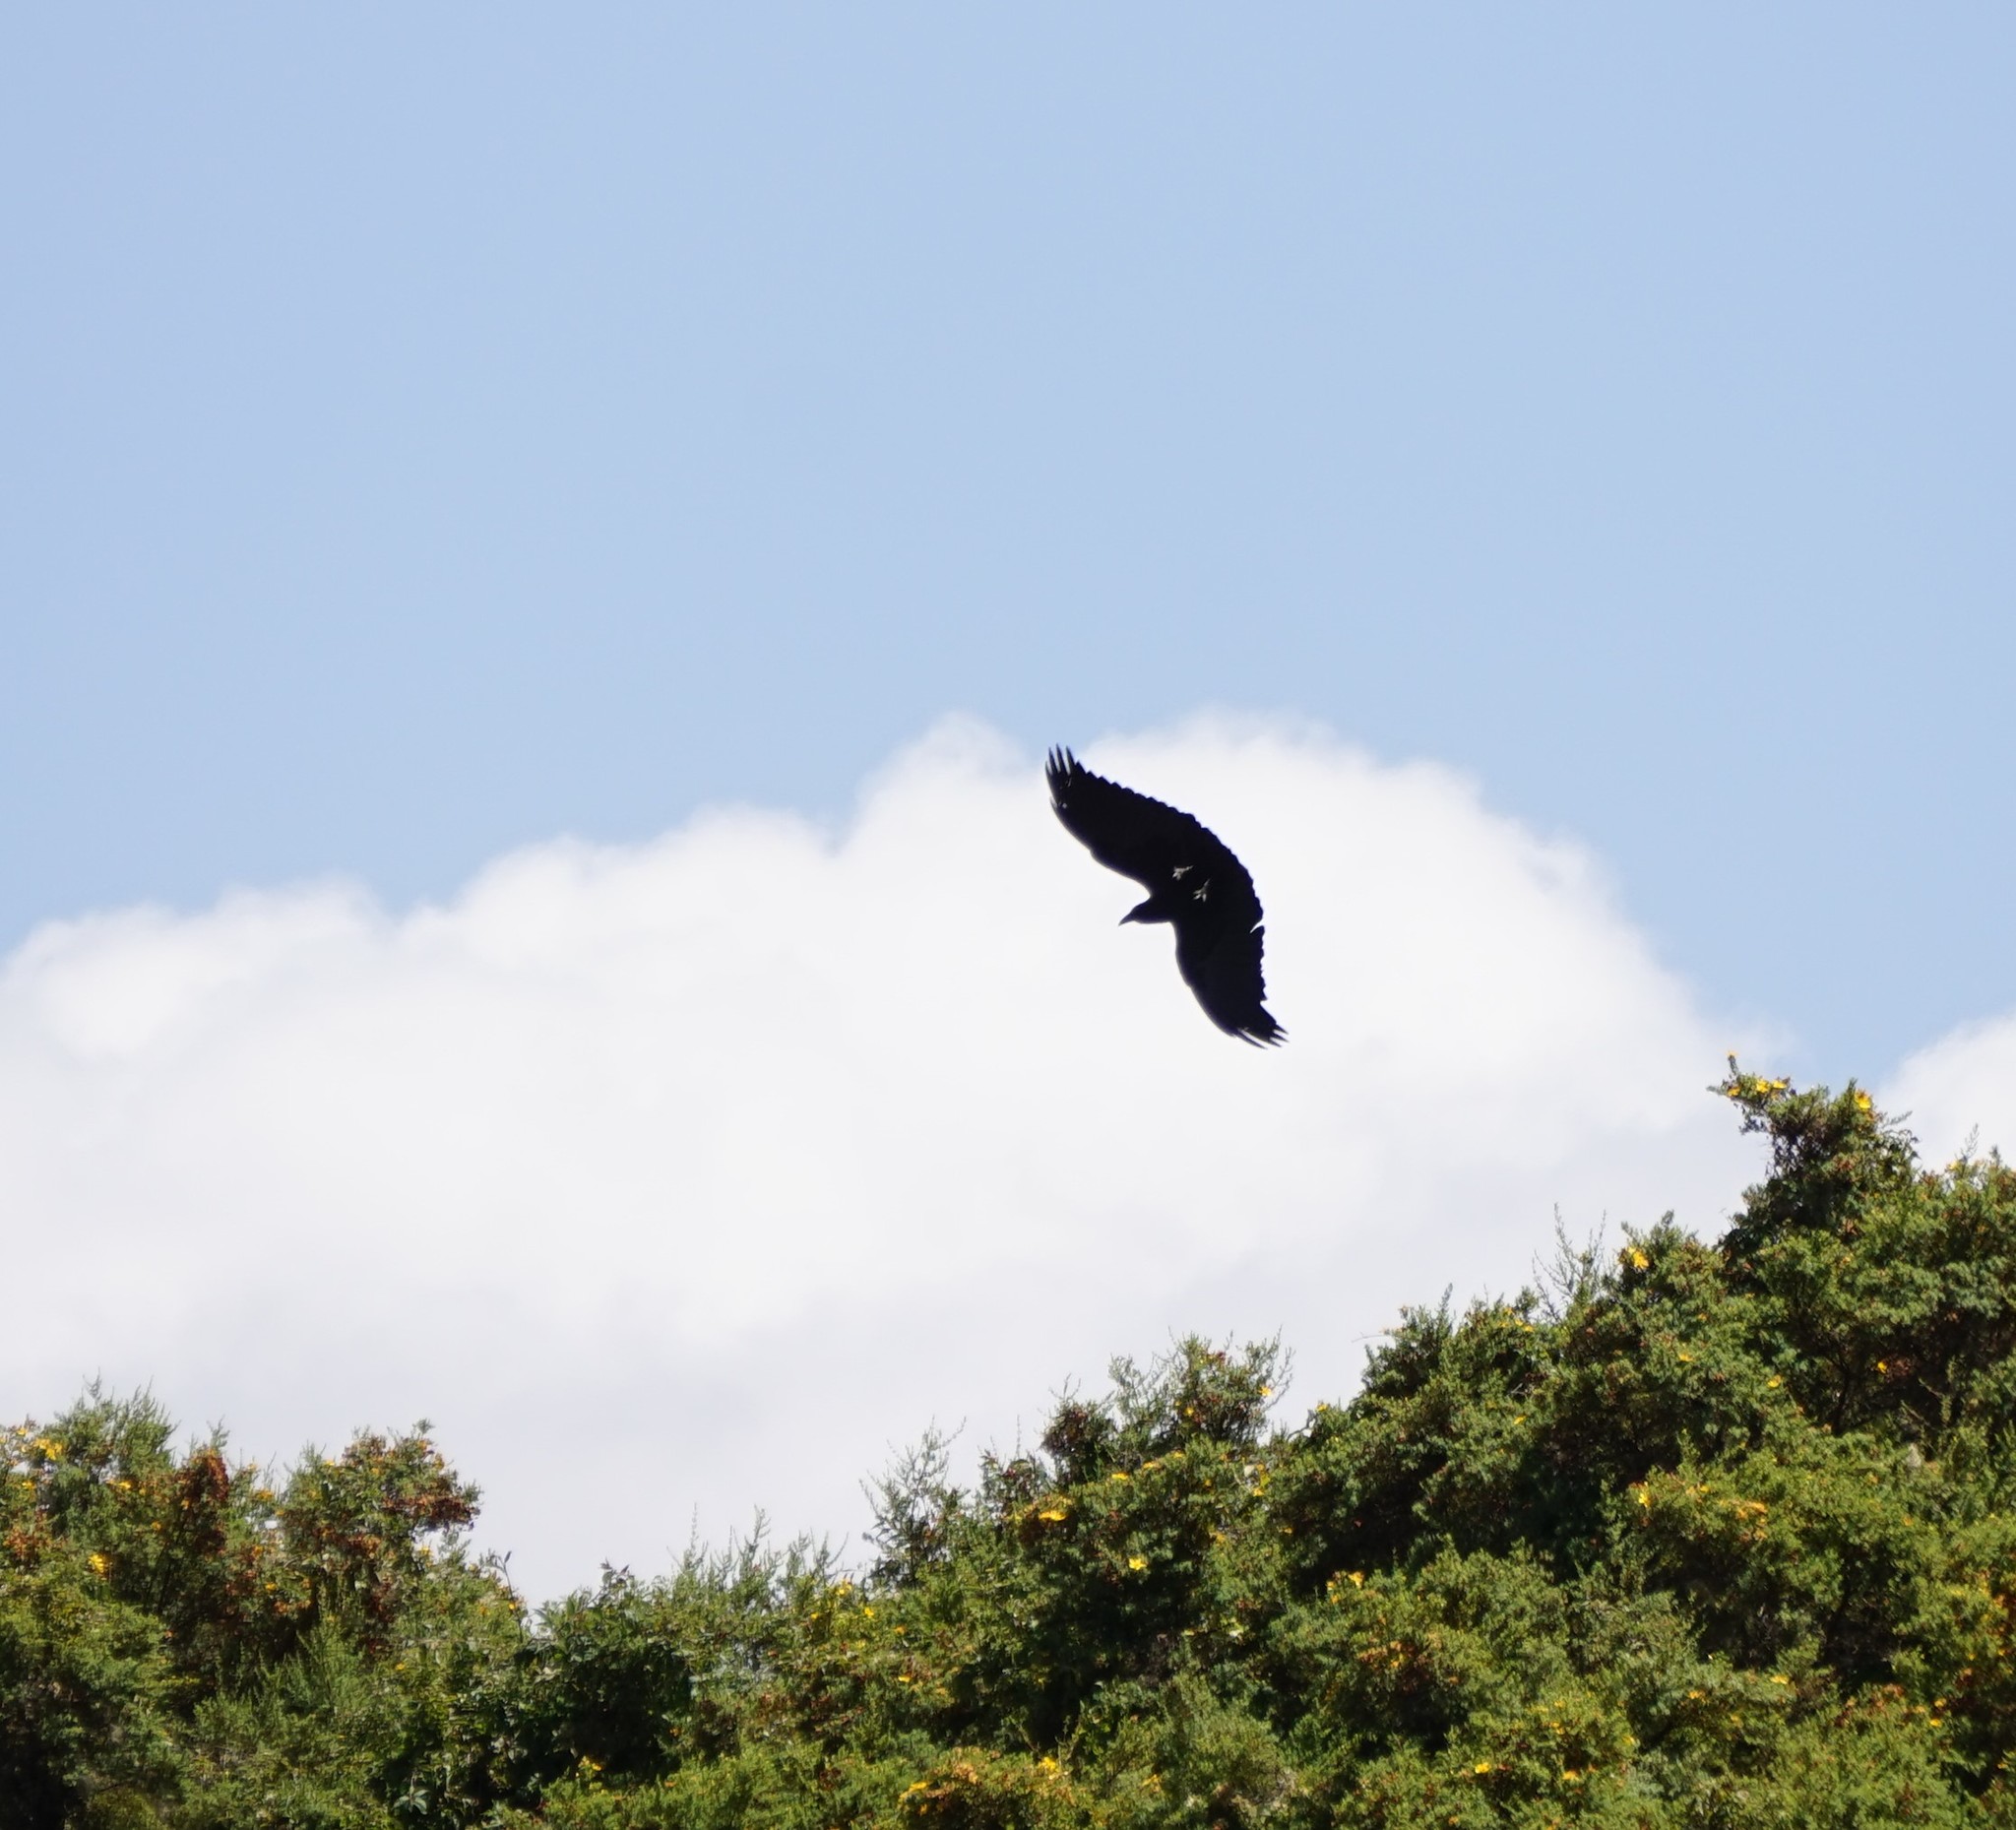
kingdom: Animalia
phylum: Chordata
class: Aves
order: Passeriformes
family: Corvidae
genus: Corvus
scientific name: Corvus rhipidurus
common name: Fan-tailed raven
